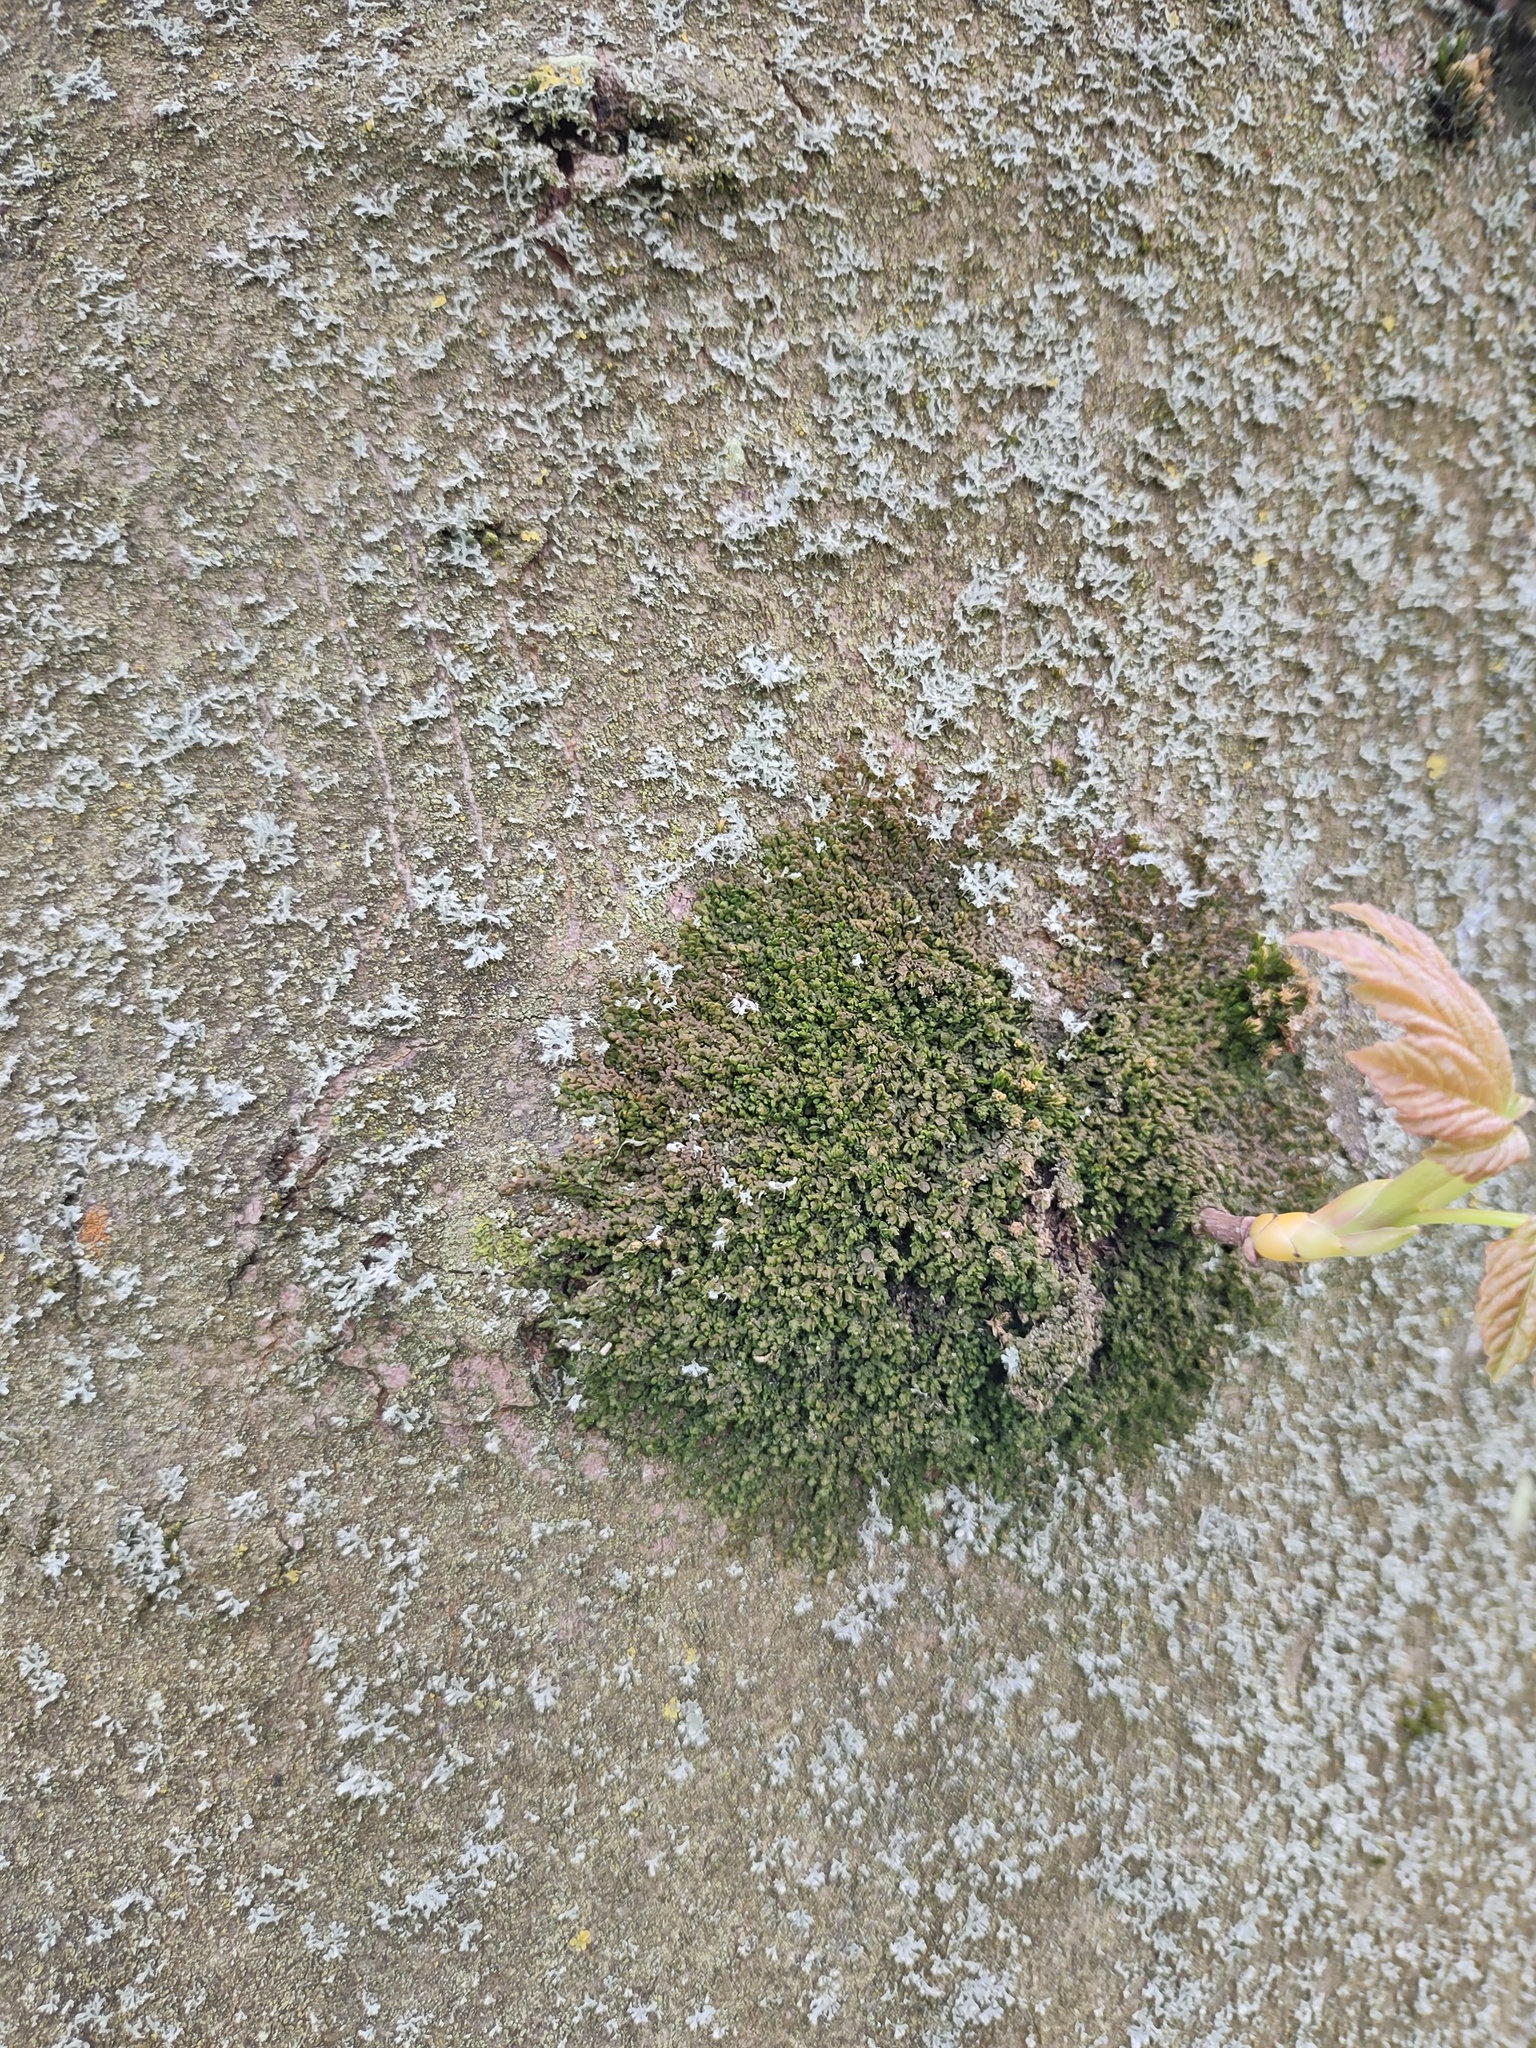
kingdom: Plantae
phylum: Marchantiophyta
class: Jungermanniopsida
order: Porellales
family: Frullaniaceae
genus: Frullania
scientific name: Frullania dilatata
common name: Dilated scalewort
